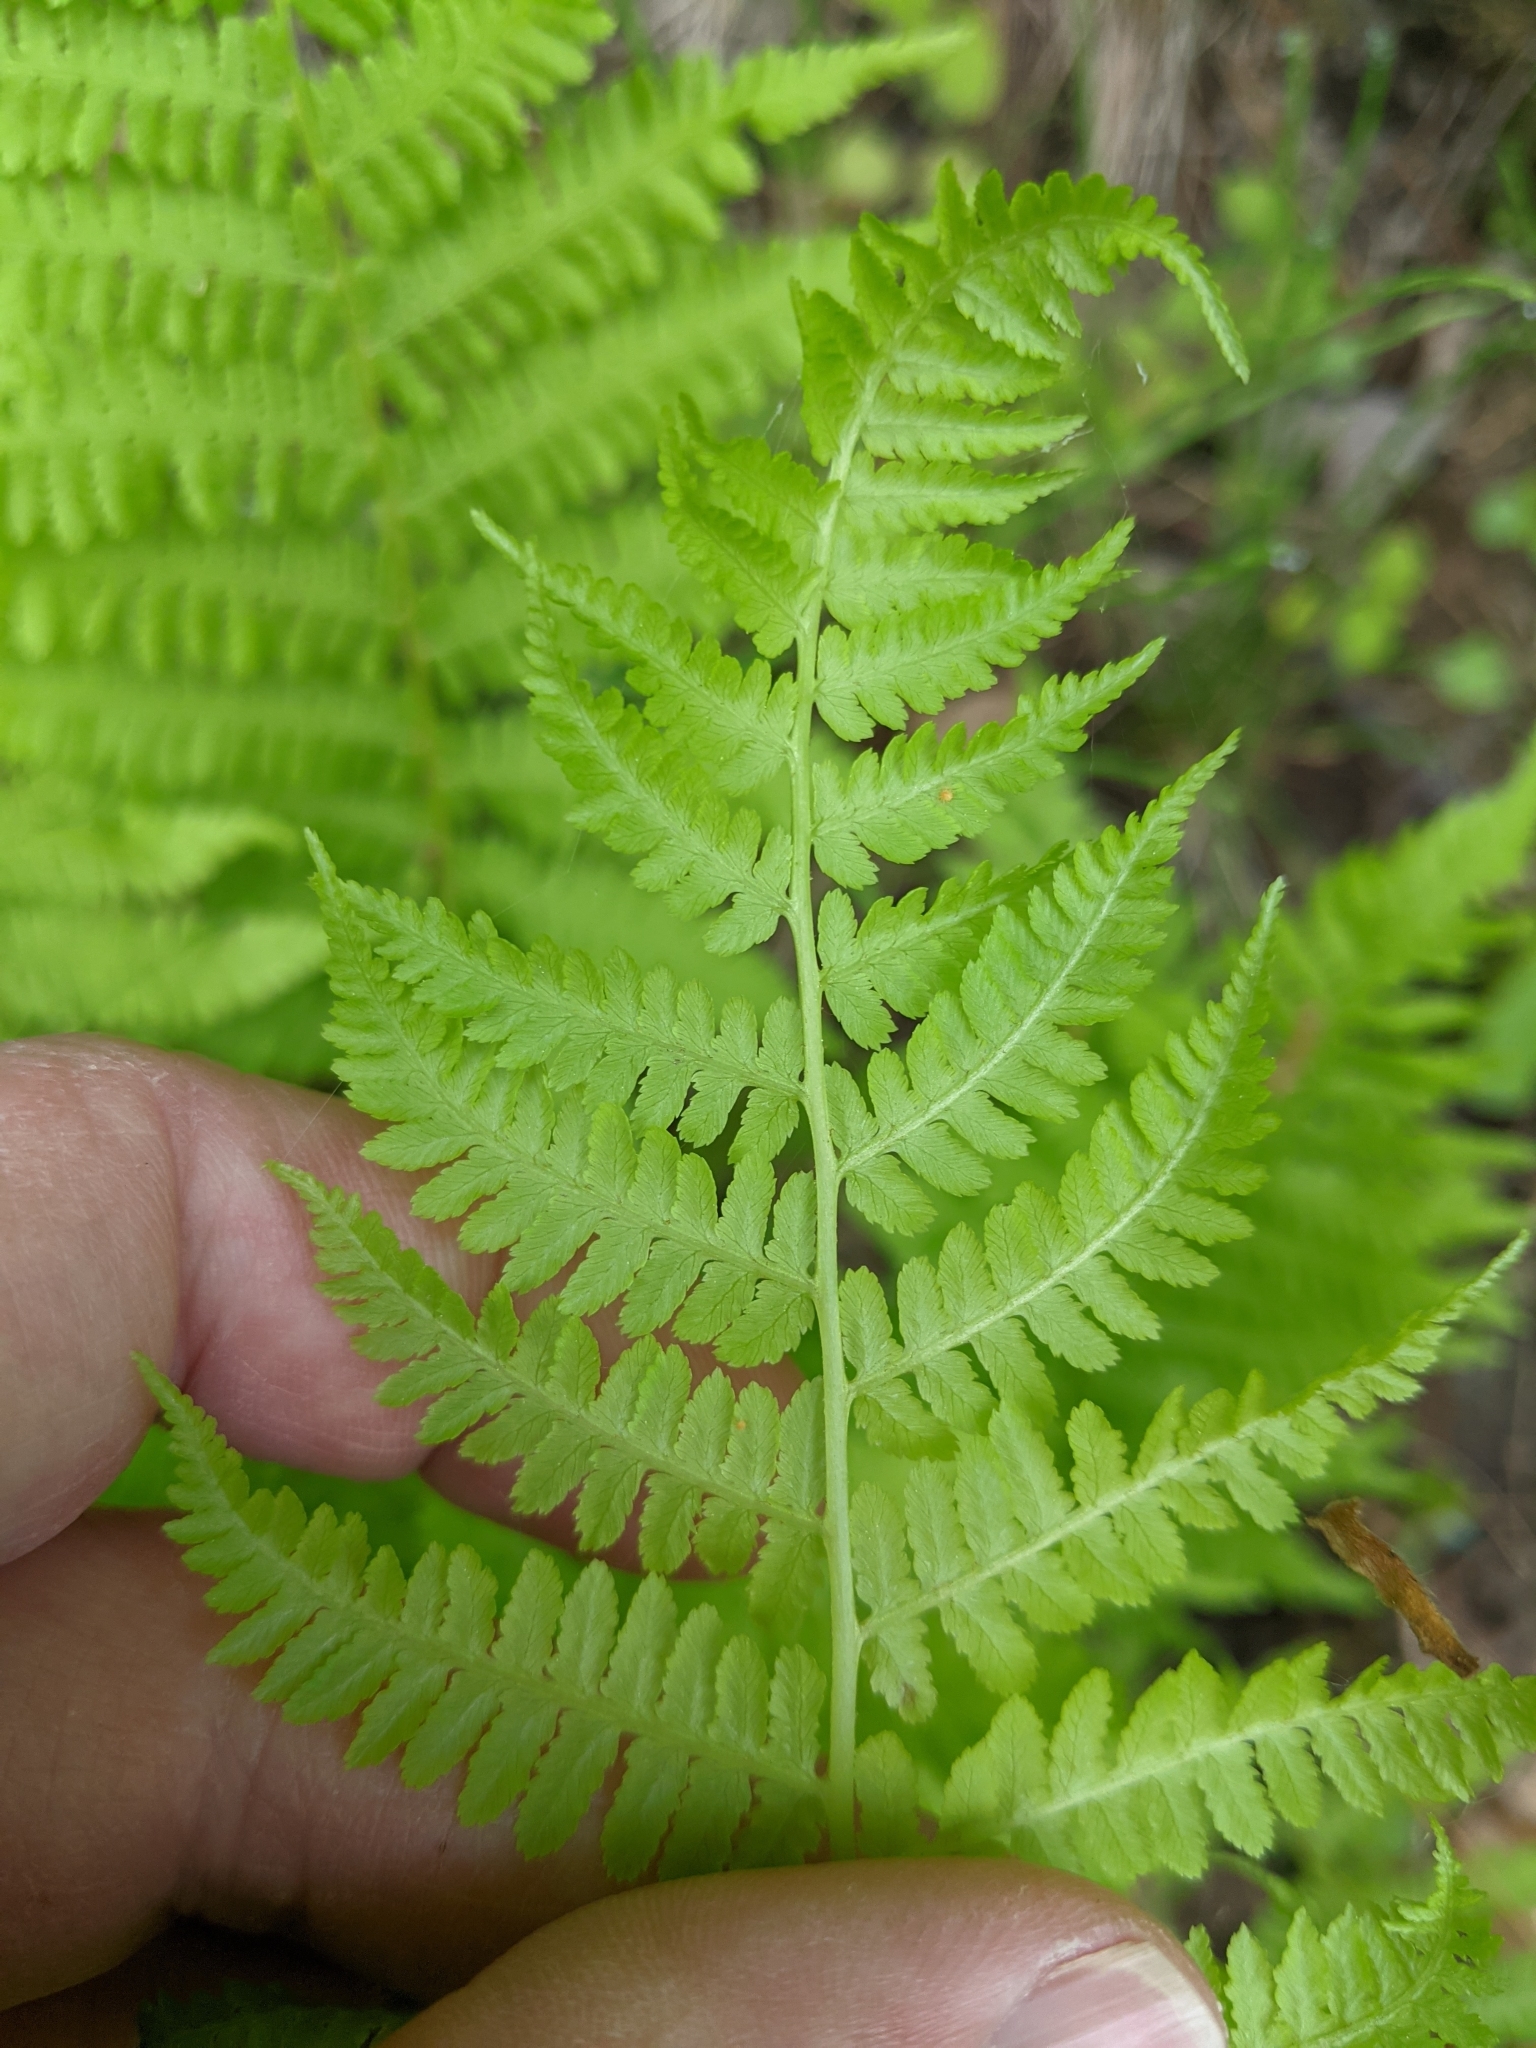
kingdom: Plantae
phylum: Tracheophyta
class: Polypodiopsida
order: Polypodiales
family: Athyriaceae
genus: Athyrium
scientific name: Athyrium angustum
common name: Northern lady fern
